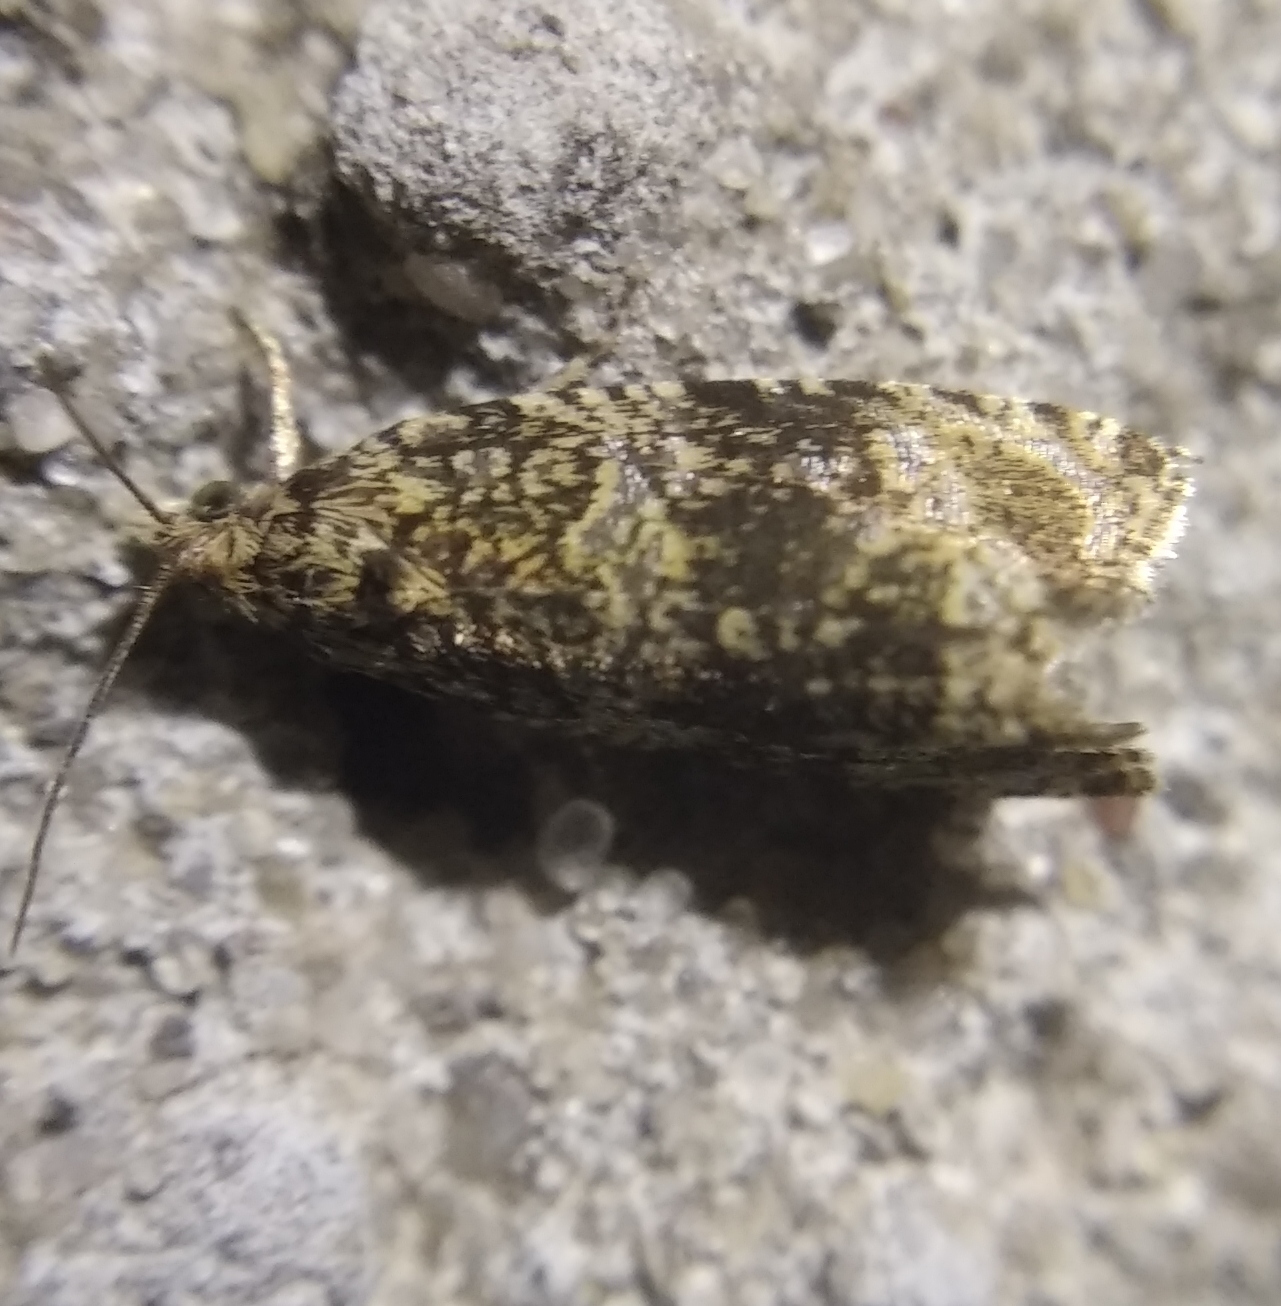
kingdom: Animalia
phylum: Arthropoda
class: Insecta
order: Lepidoptera
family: Tortricidae
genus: Syricoris
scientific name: Syricoris lacunana
